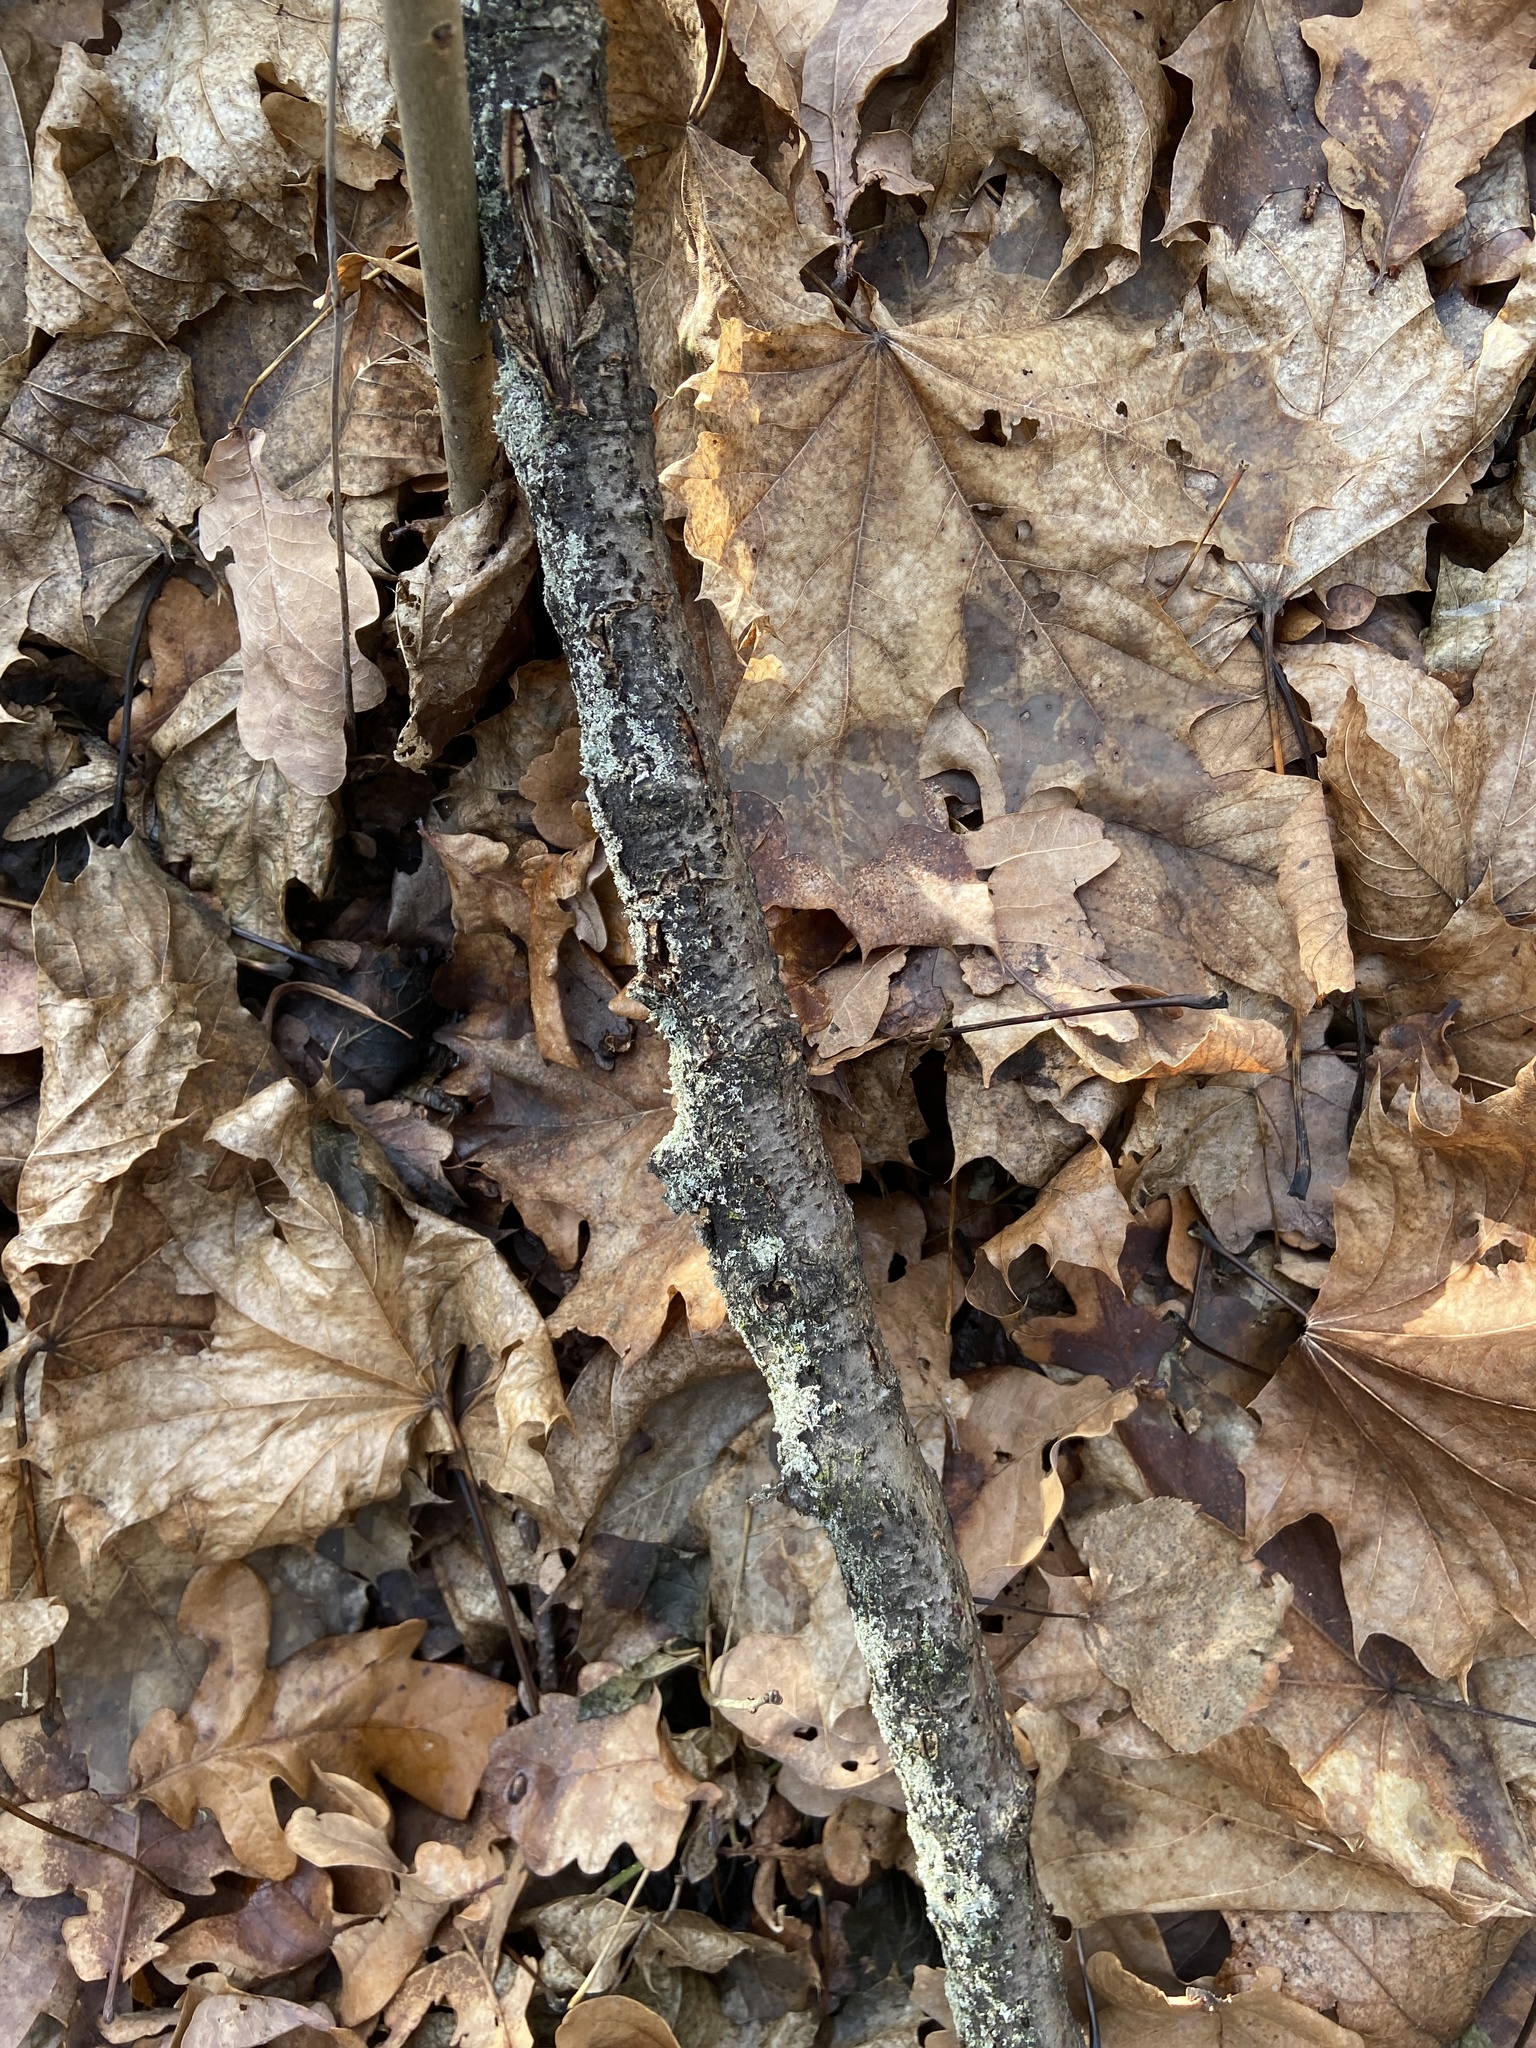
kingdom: Fungi
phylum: Ascomycota
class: Lecanoromycetes
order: Caliciales
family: Physciaceae
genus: Physcia
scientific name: Physcia adscendens
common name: Hooded rosette lichen
